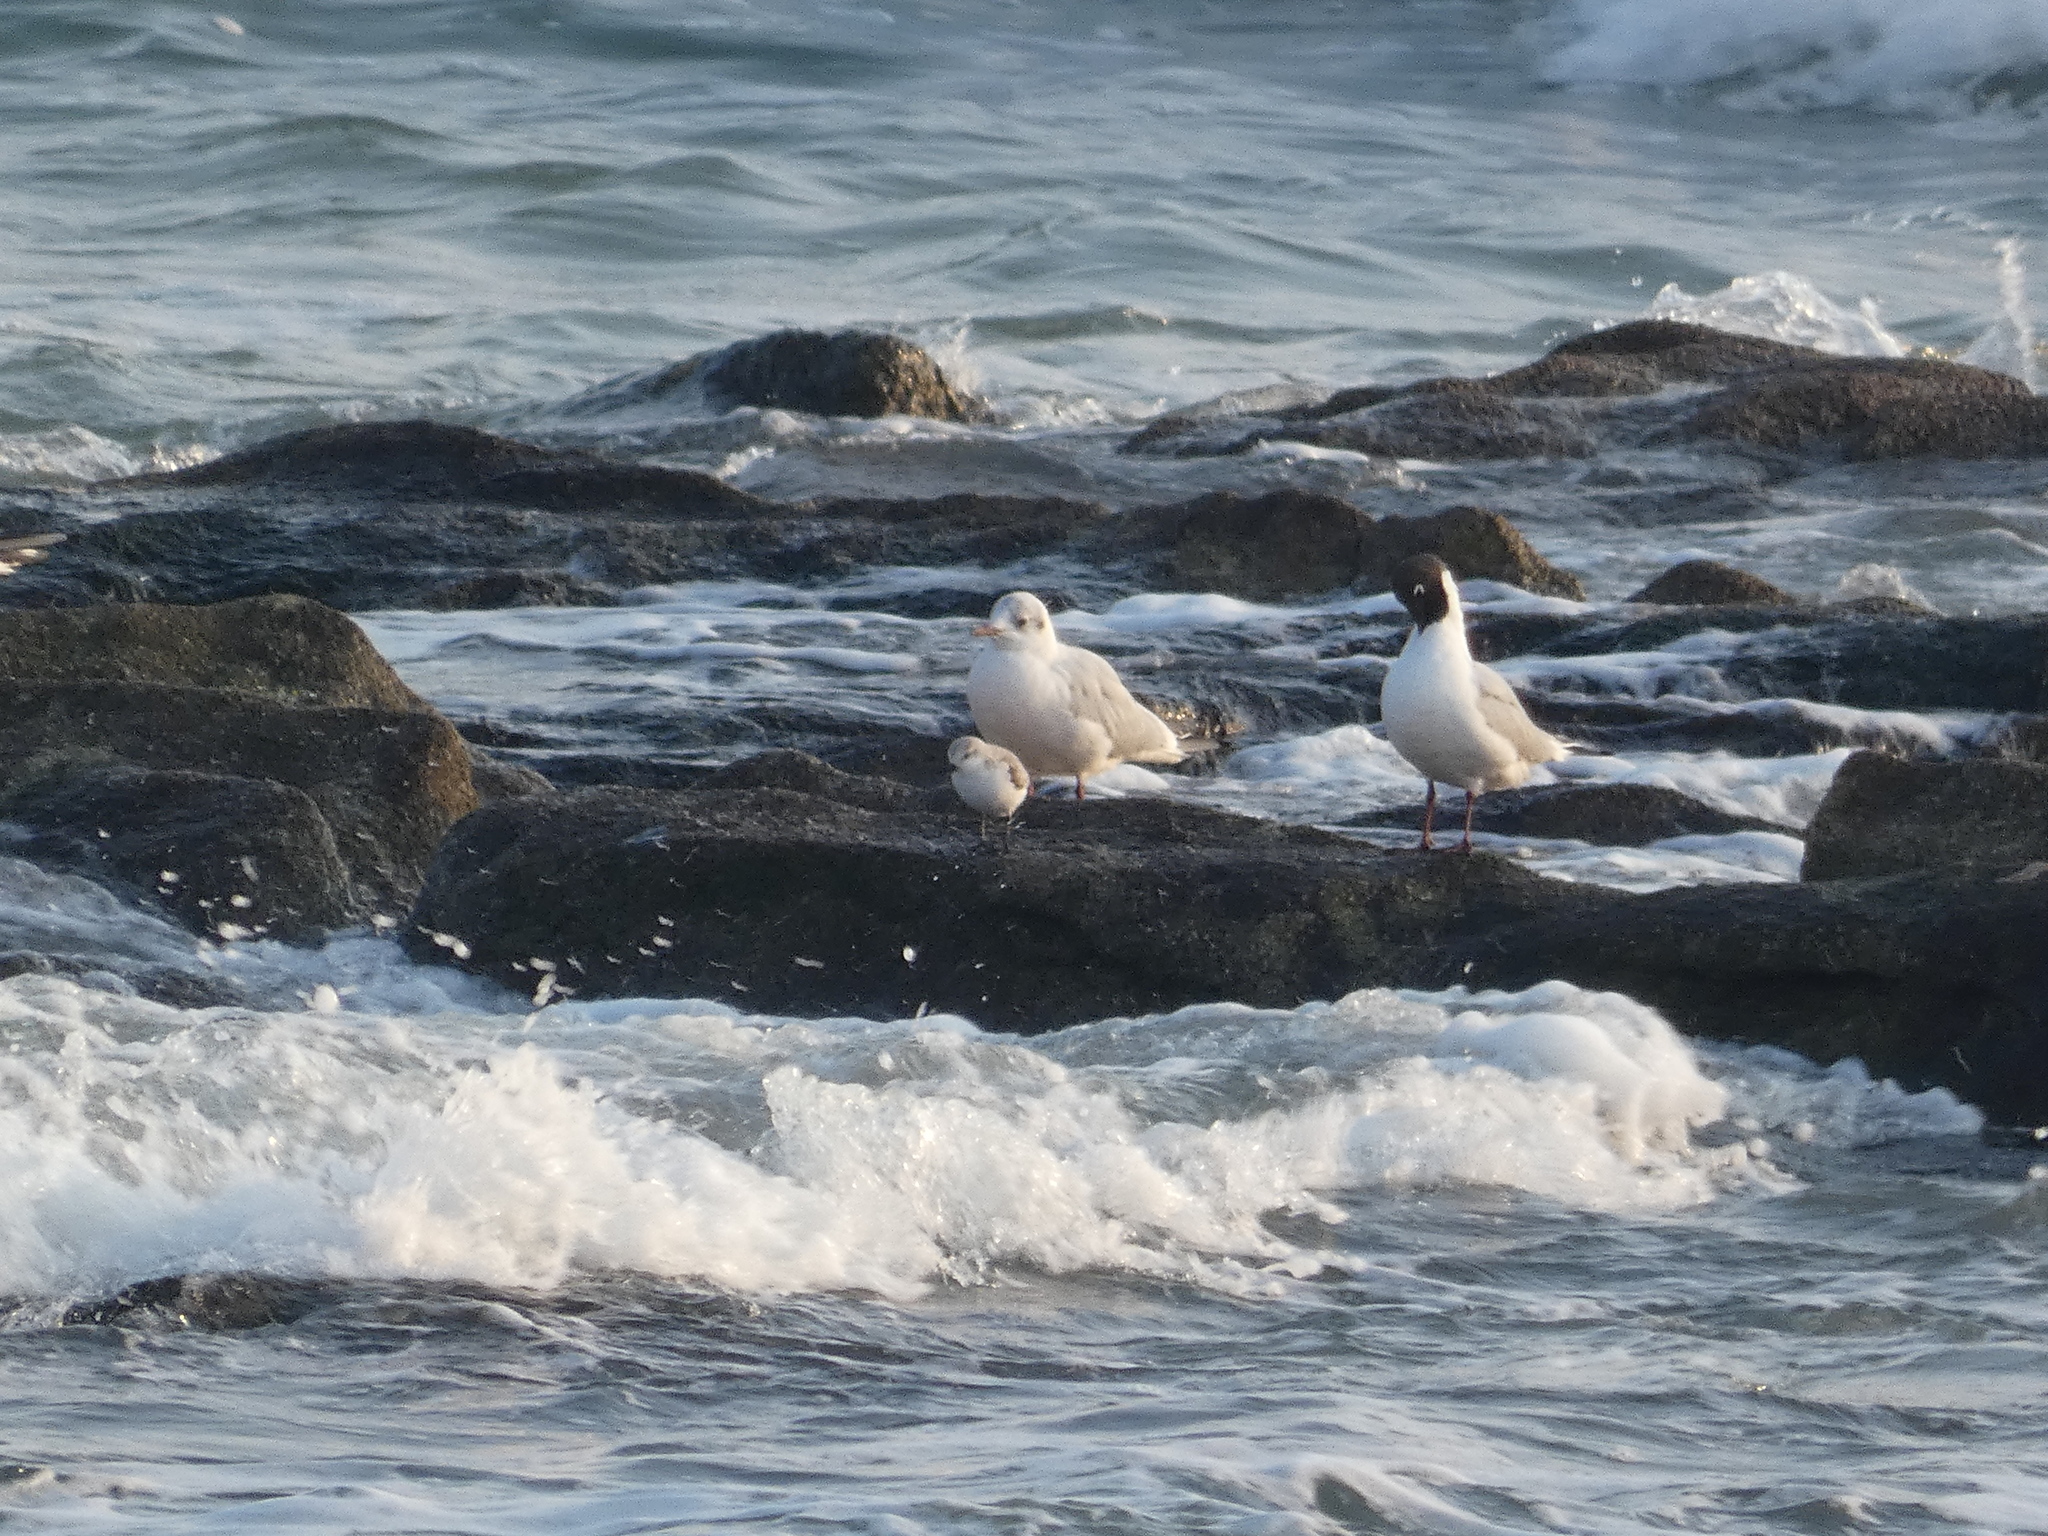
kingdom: Animalia
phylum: Chordata
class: Aves
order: Charadriiformes
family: Laridae
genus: Chroicocephalus
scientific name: Chroicocephalus ridibundus
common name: Black-headed gull
